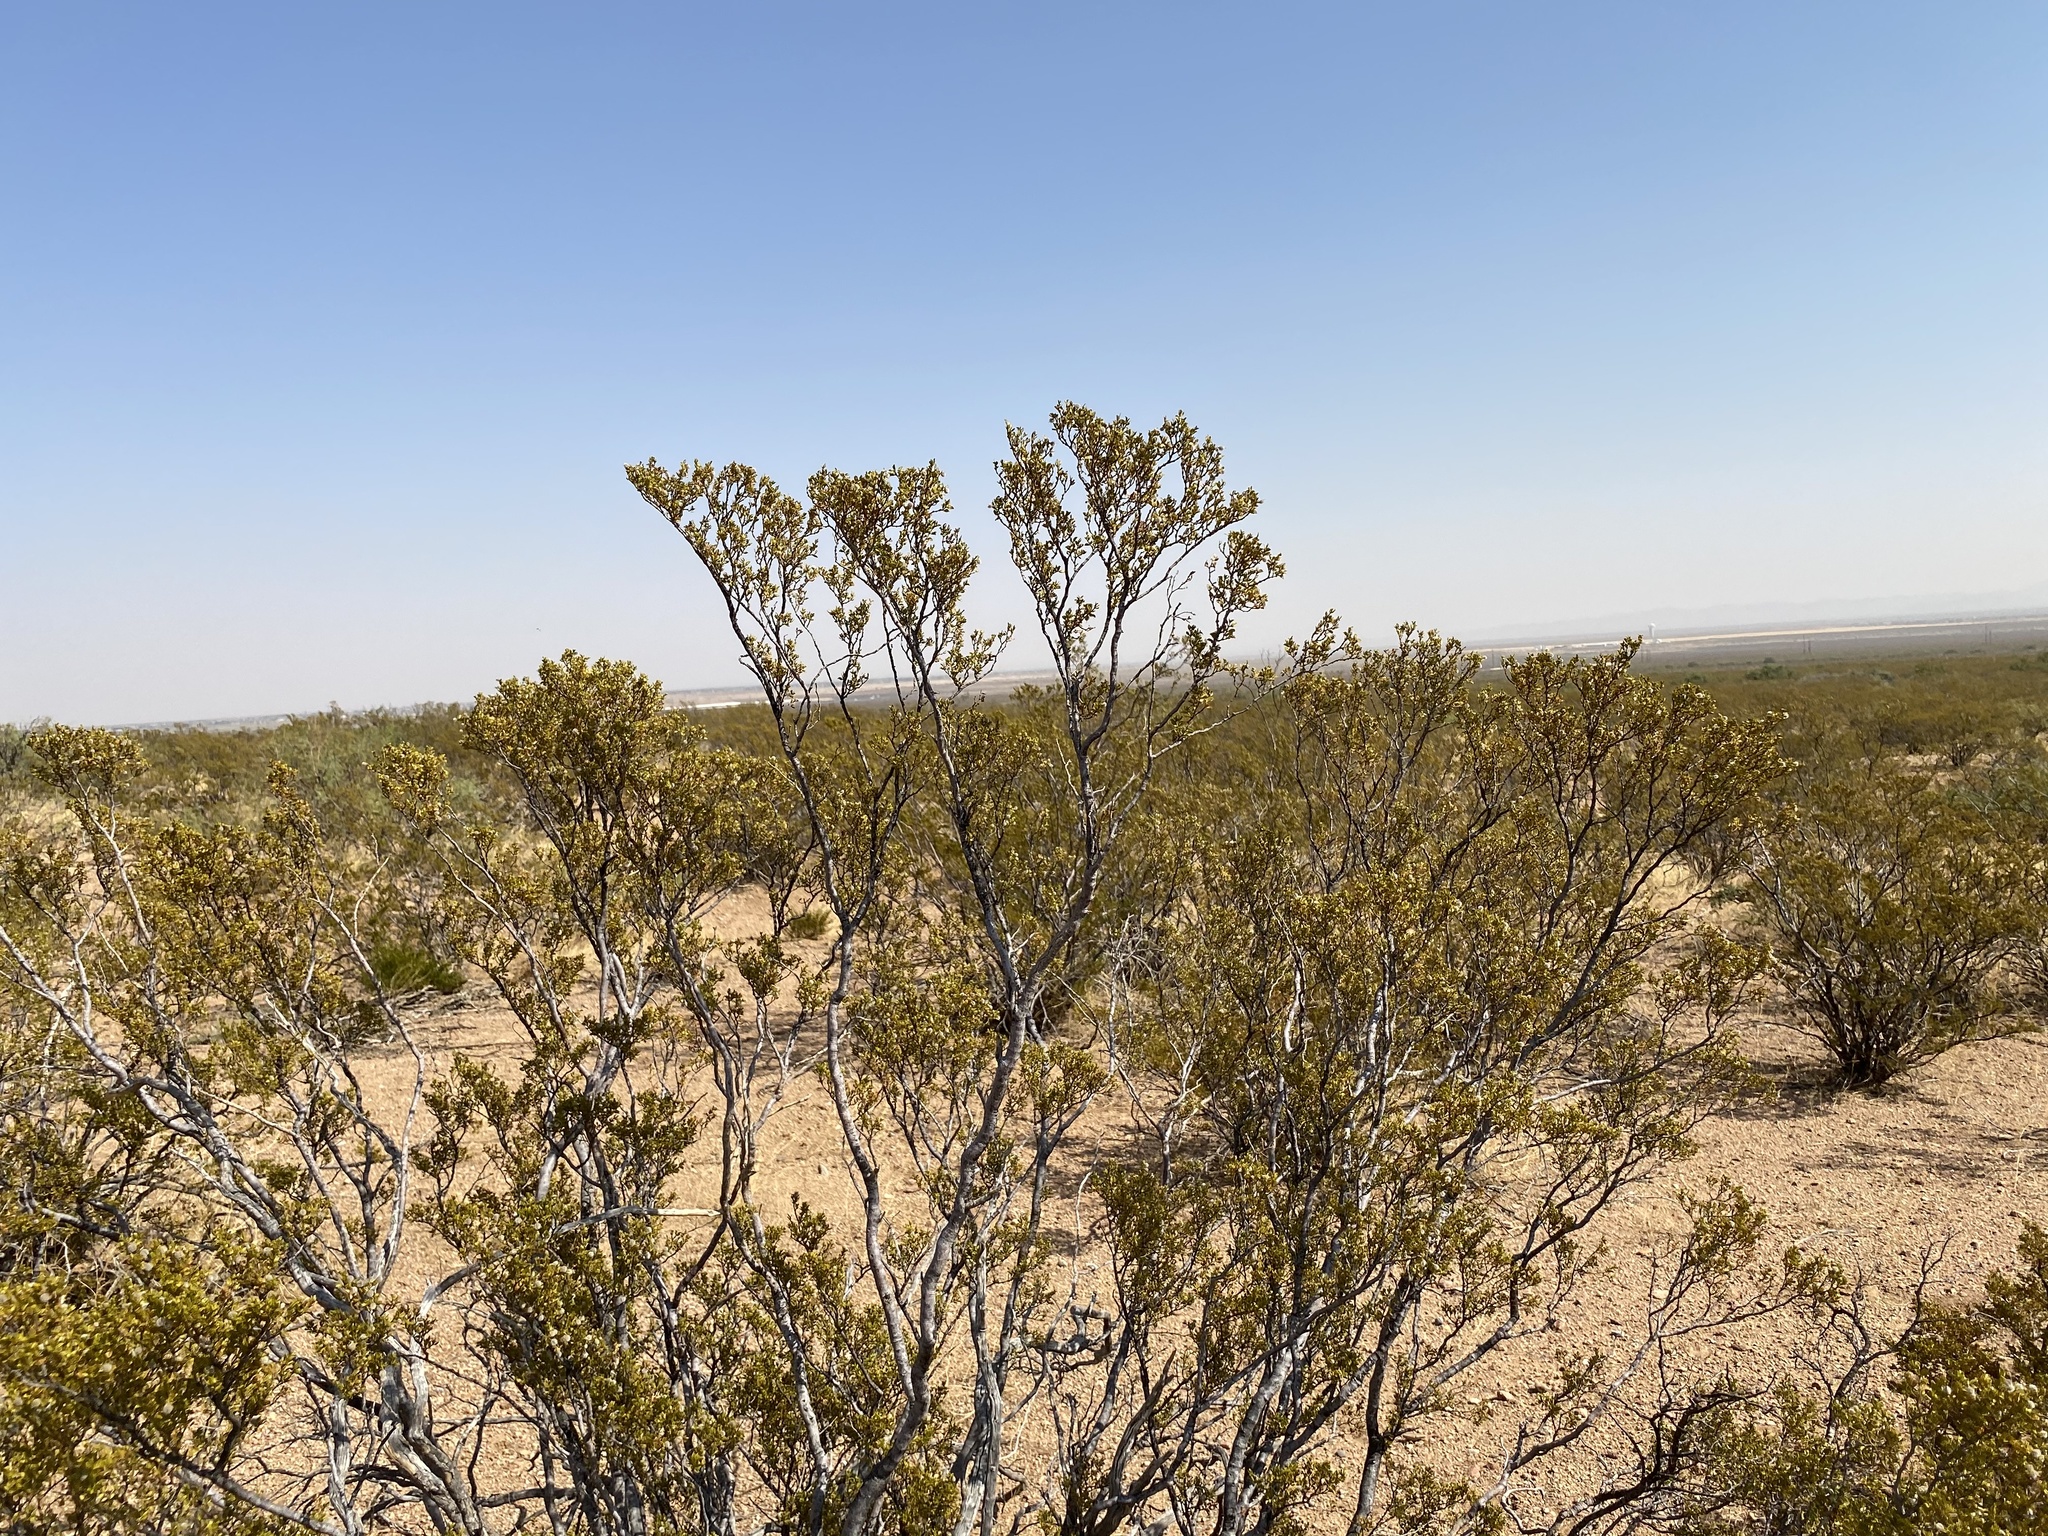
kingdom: Plantae
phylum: Tracheophyta
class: Magnoliopsida
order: Zygophyllales
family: Zygophyllaceae
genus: Larrea
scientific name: Larrea tridentata
